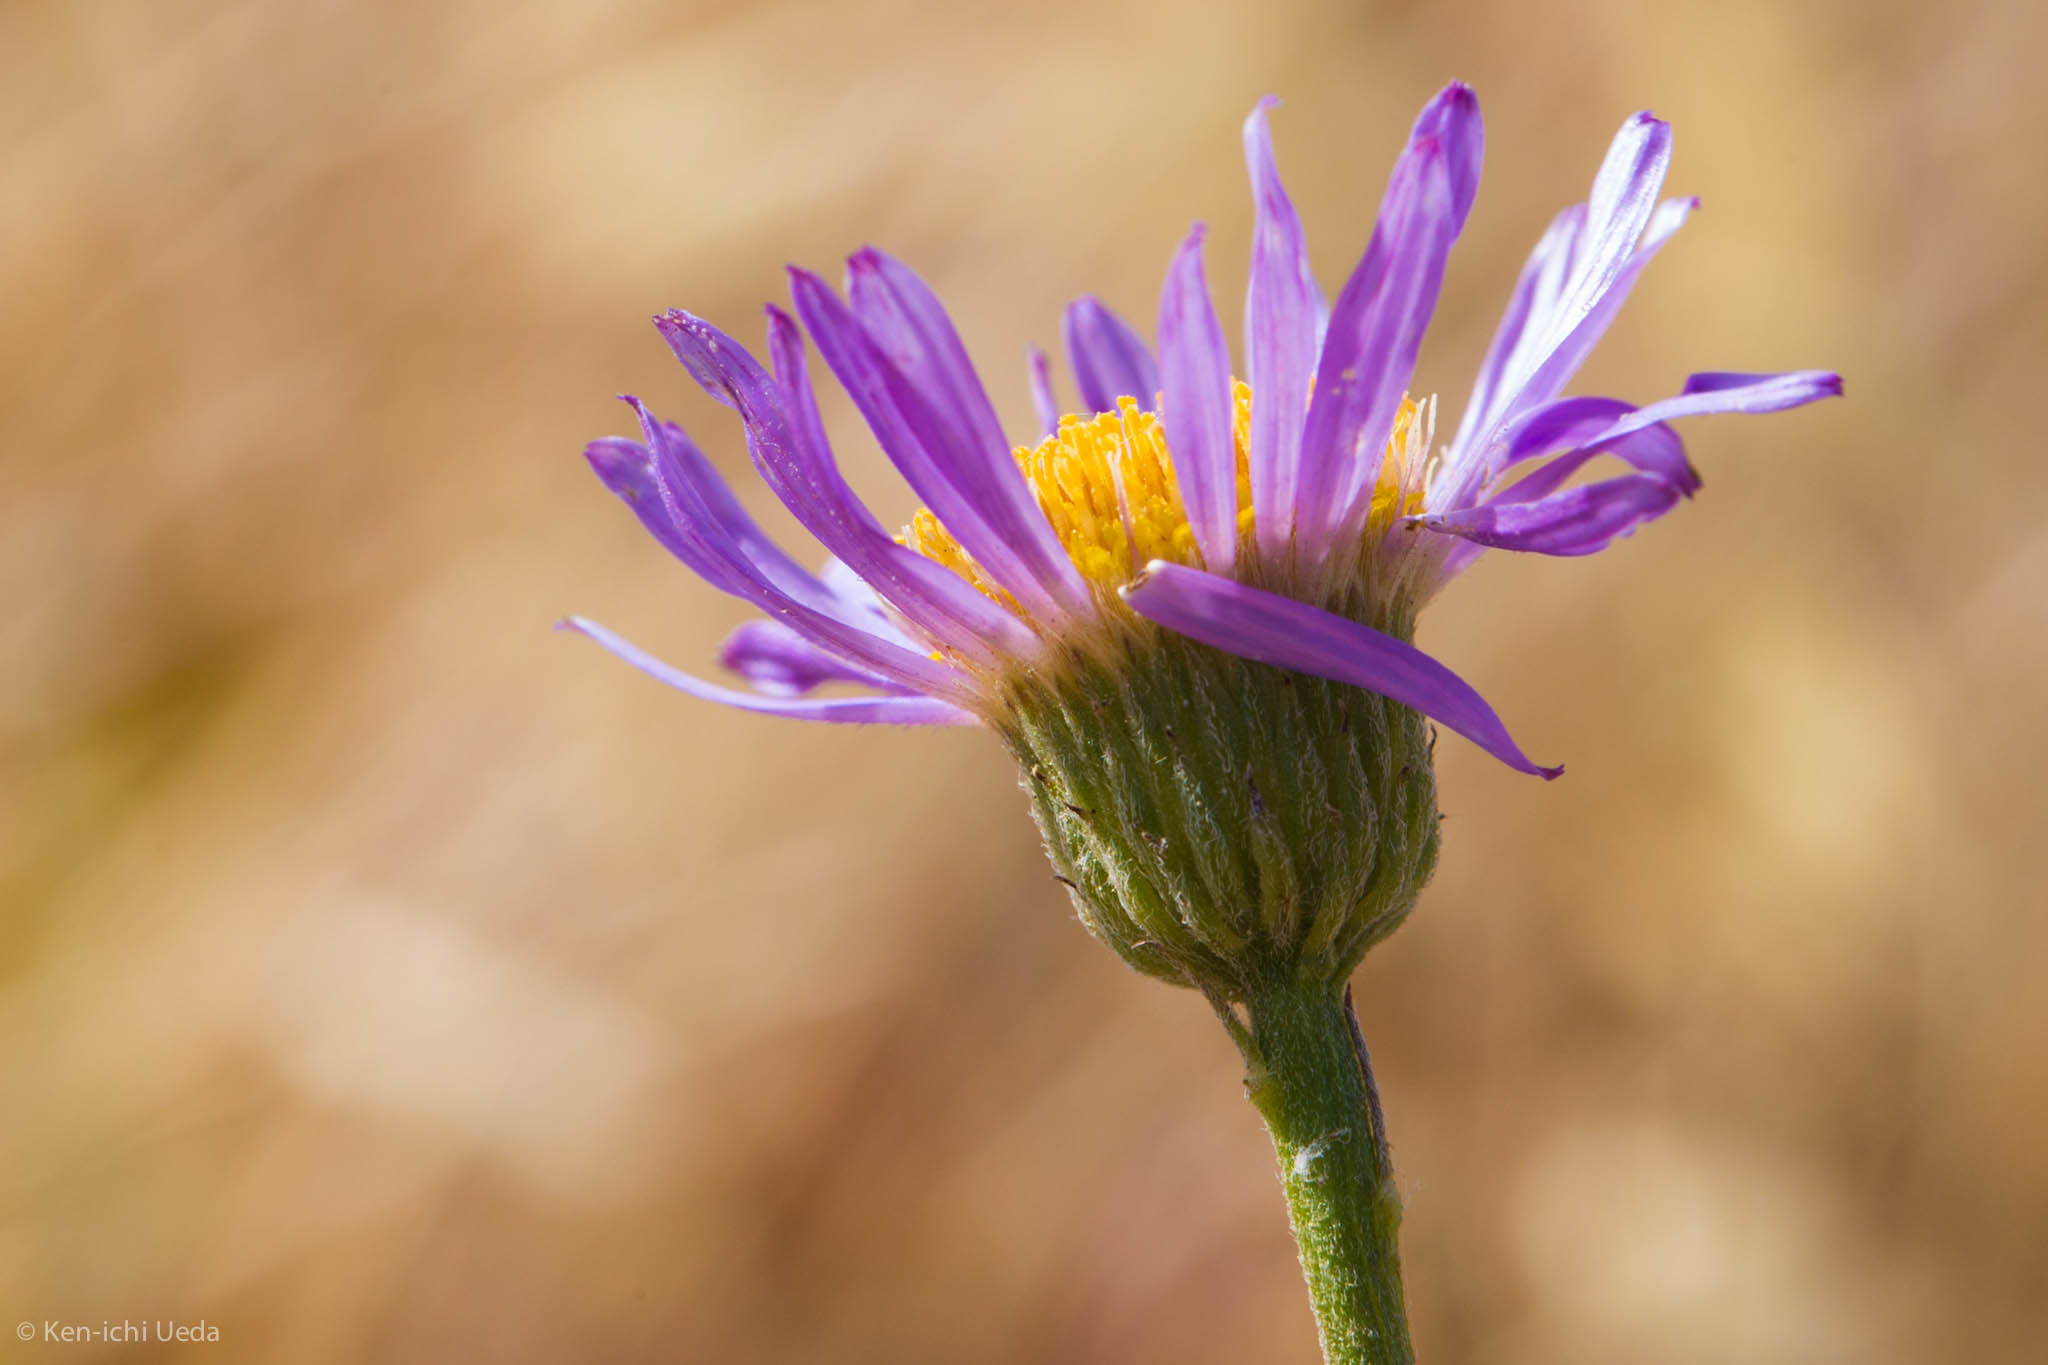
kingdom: Plantae
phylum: Tracheophyta
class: Magnoliopsida
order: Asterales
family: Asteraceae
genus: Erigeron
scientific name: Erigeron foliosus
